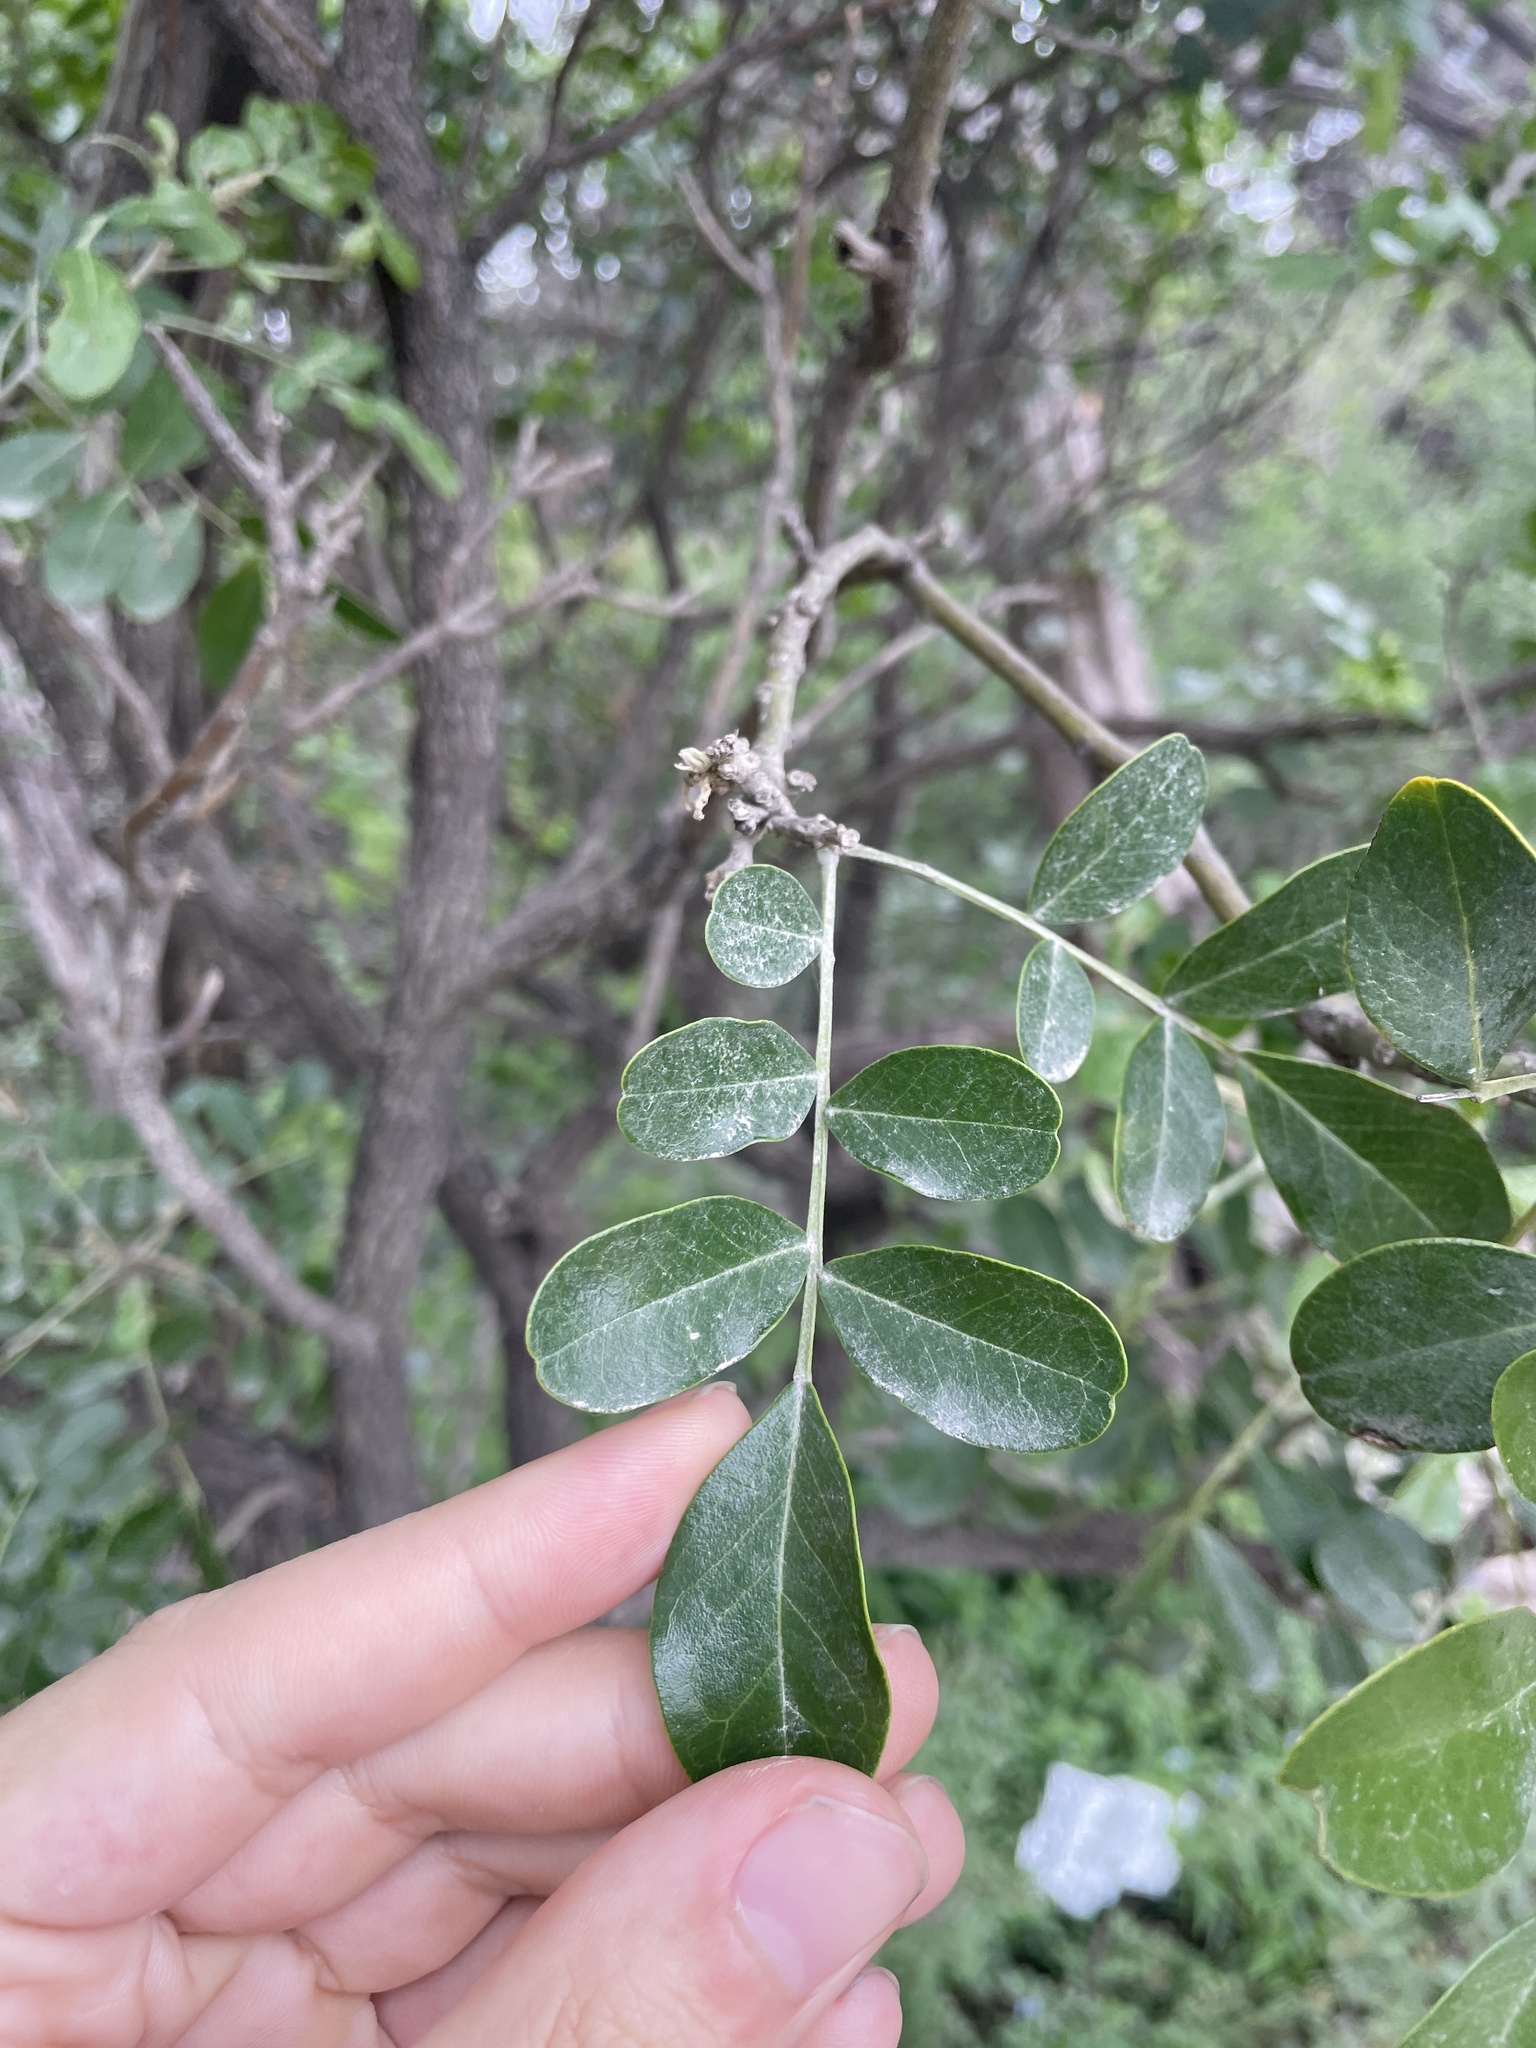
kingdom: Plantae
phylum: Tracheophyta
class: Magnoliopsida
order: Fabales
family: Fabaceae
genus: Dermatophyllum
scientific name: Dermatophyllum secundiflorum
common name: Texas-mountain-laurel
